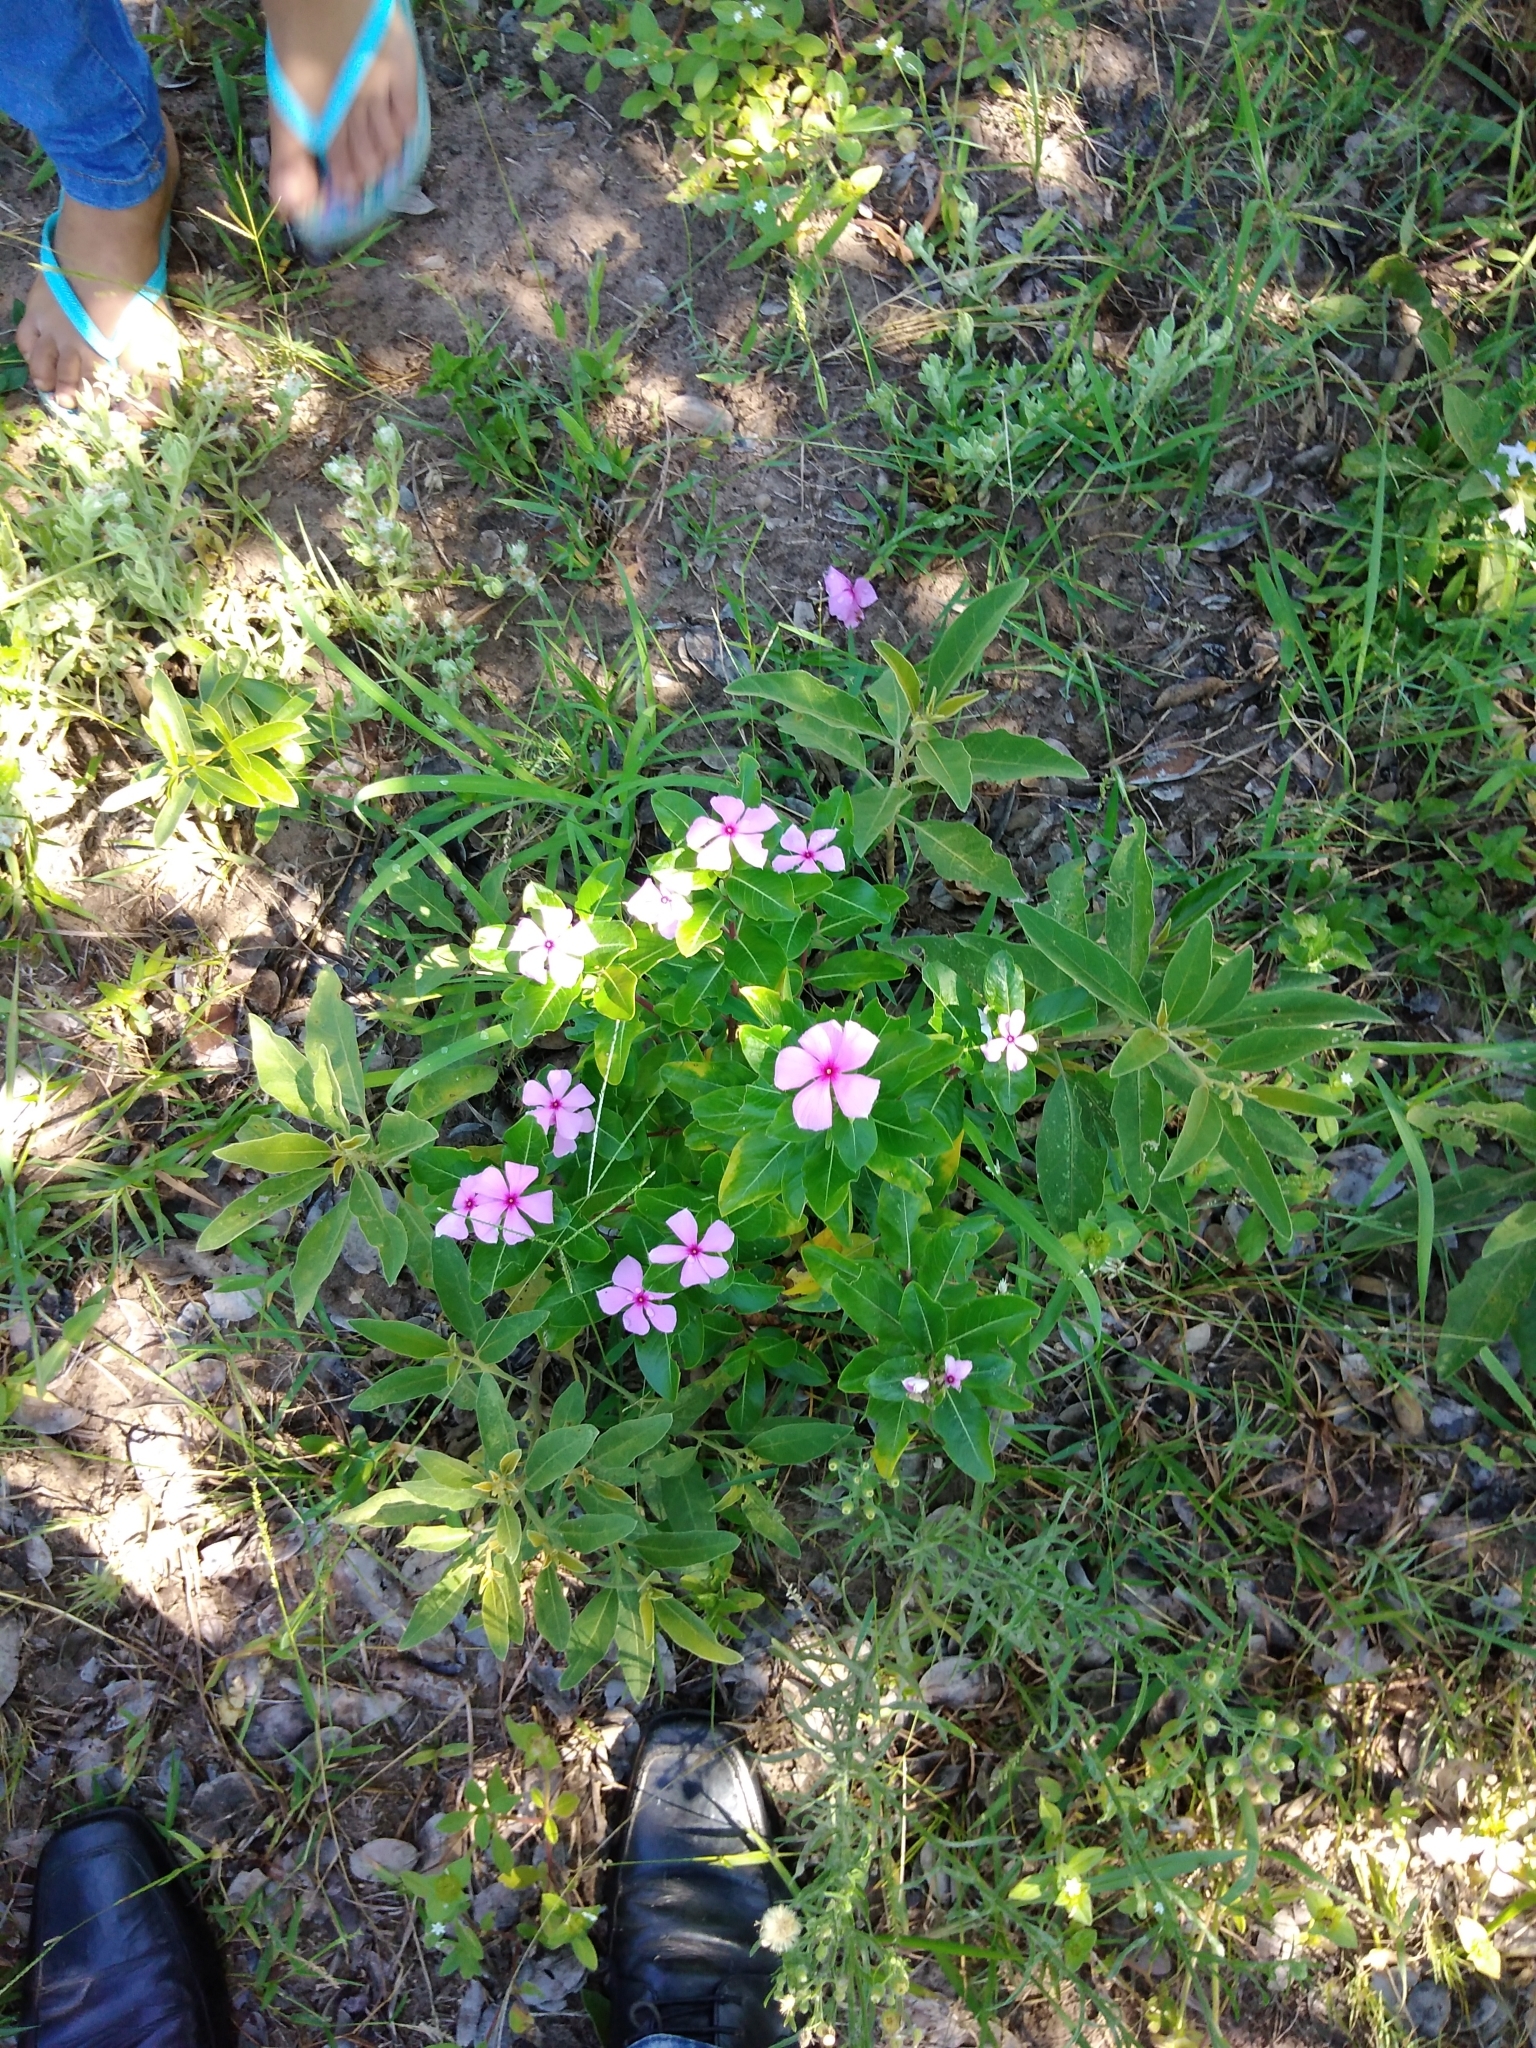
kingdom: Plantae
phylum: Tracheophyta
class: Magnoliopsida
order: Gentianales
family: Apocynaceae
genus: Catharanthus
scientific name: Catharanthus roseus
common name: Madagascar periwinkle
